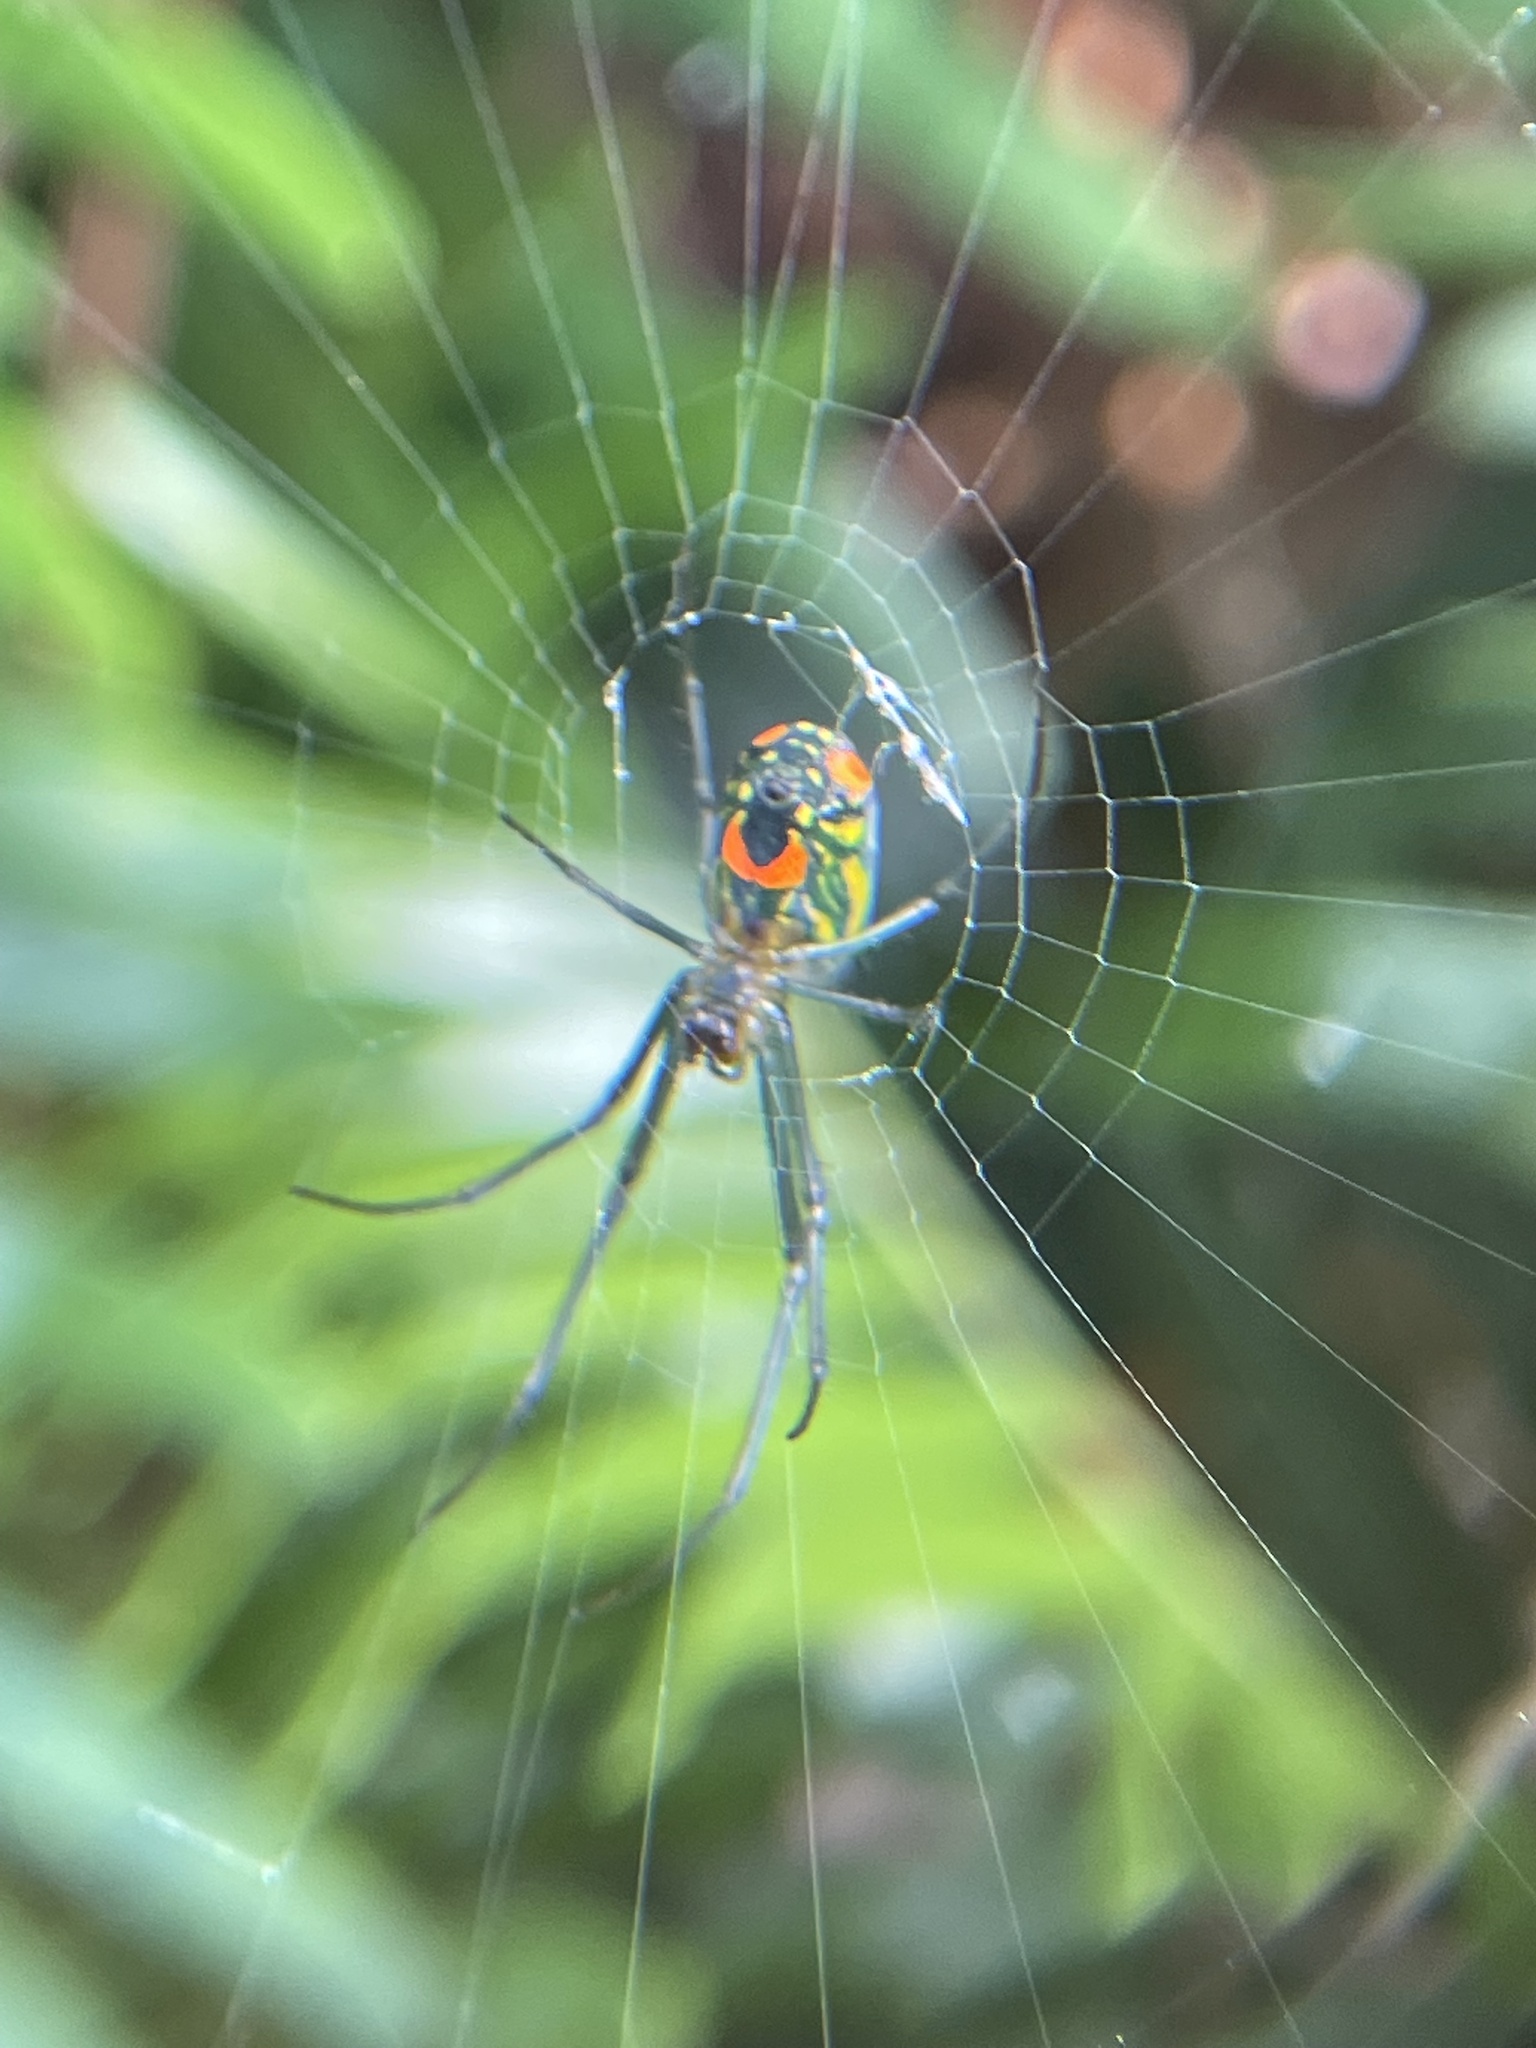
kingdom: Animalia
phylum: Arthropoda
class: Arachnida
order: Araneae
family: Tetragnathidae
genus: Leucauge
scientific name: Leucauge argyrobapta
